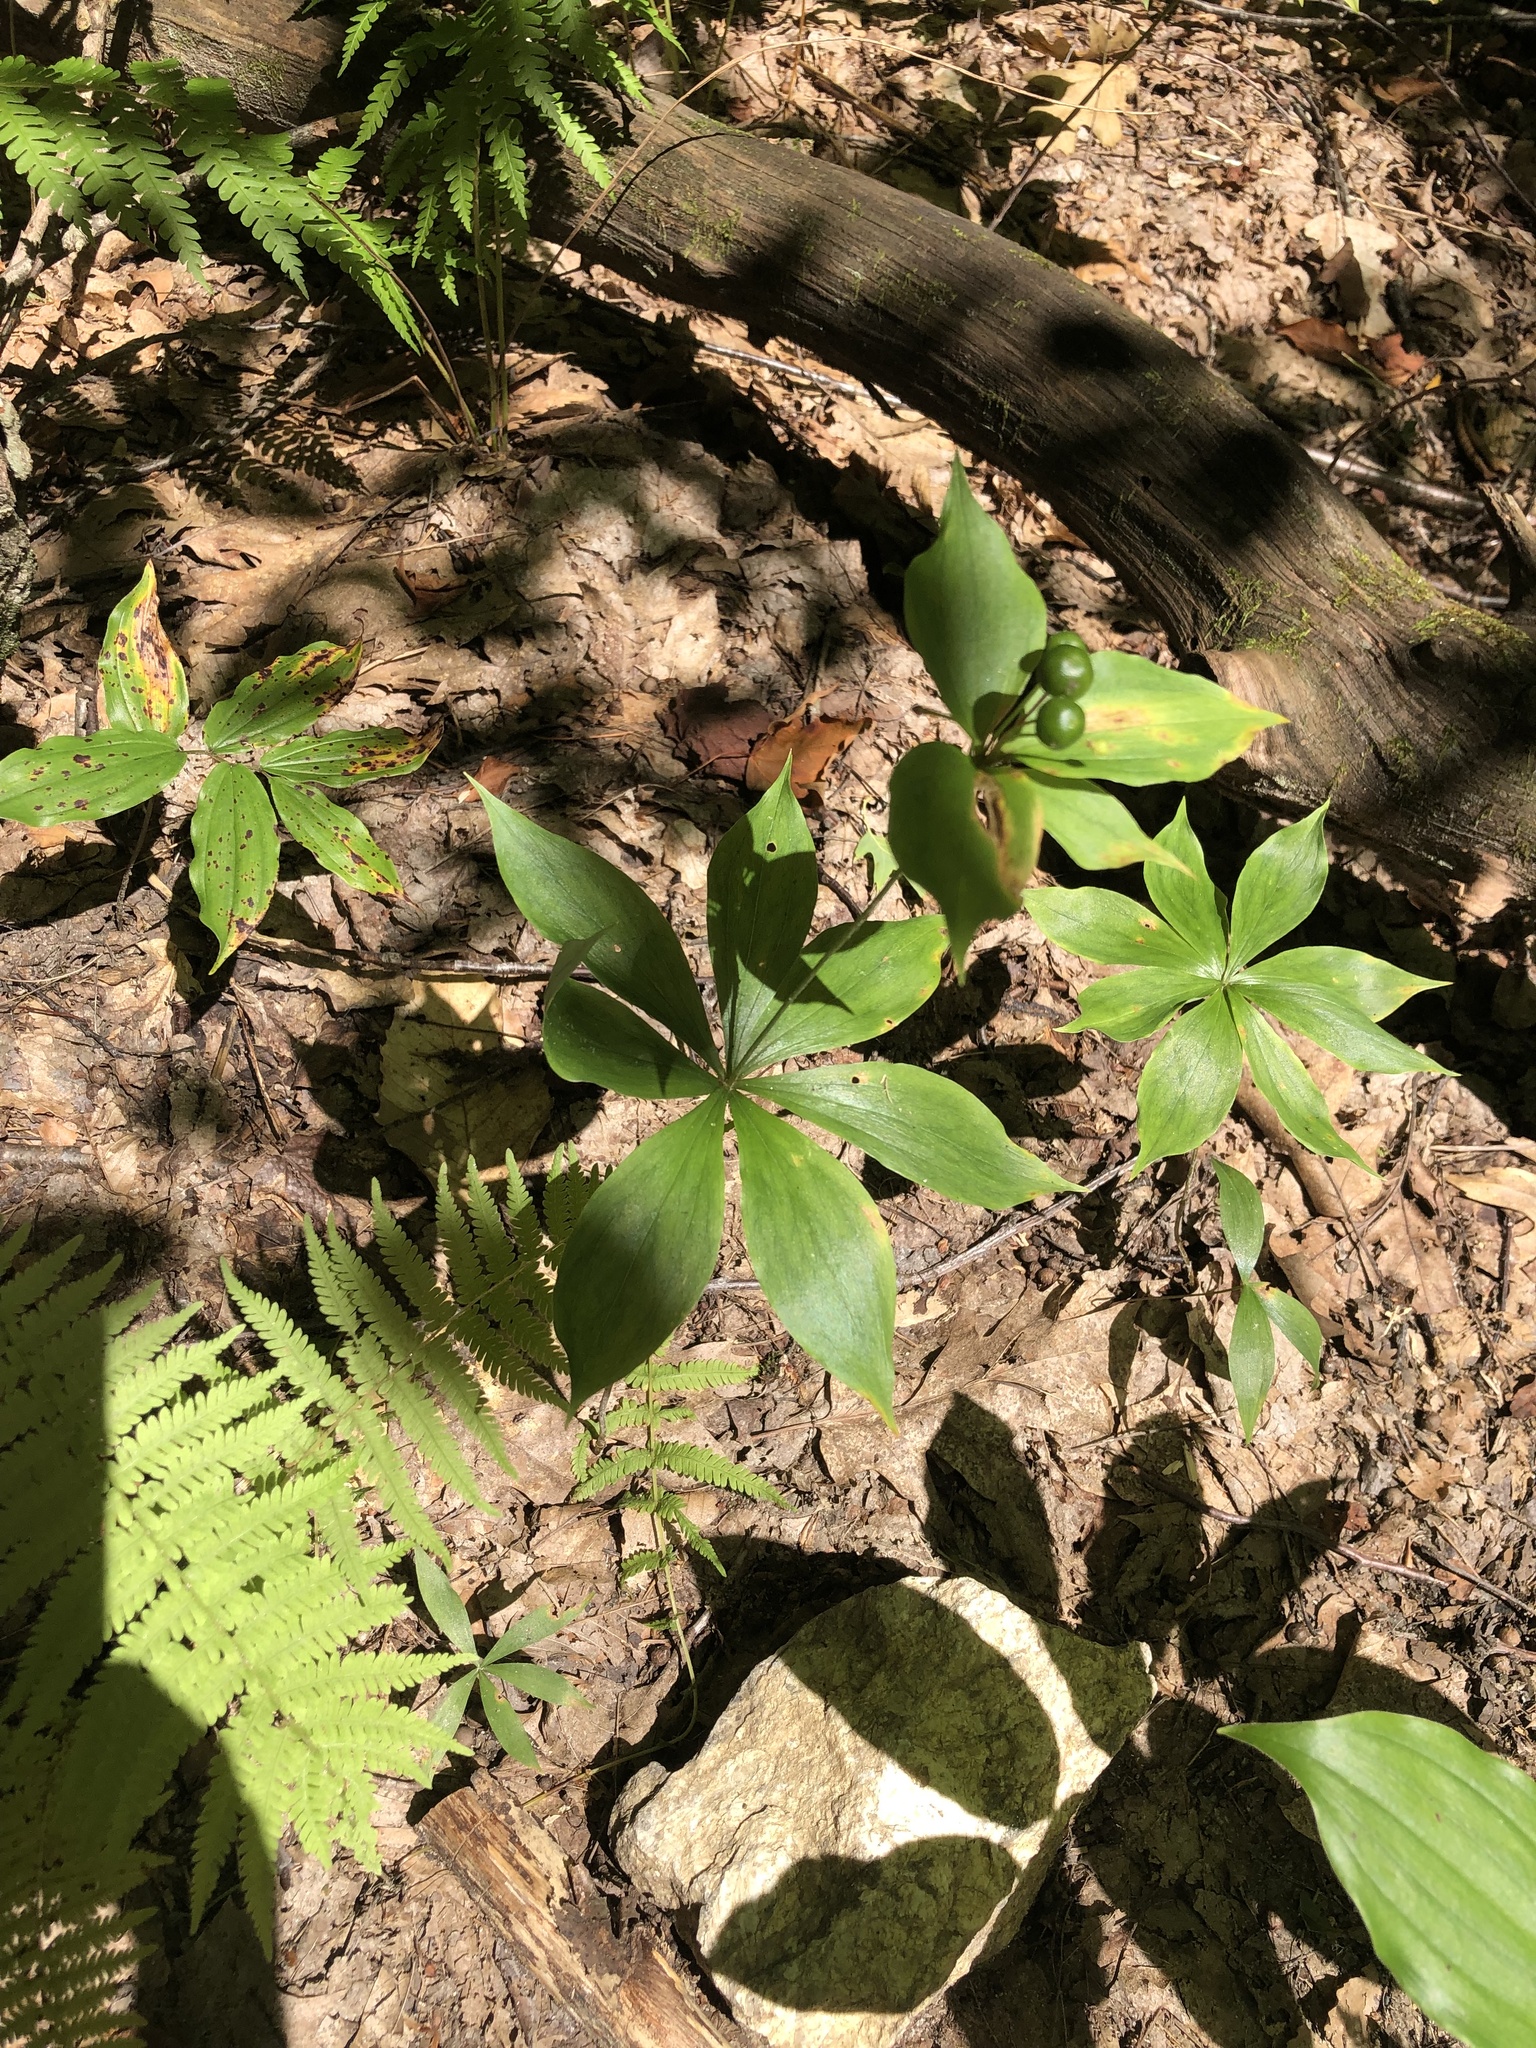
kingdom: Plantae
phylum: Tracheophyta
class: Liliopsida
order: Liliales
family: Liliaceae
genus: Medeola
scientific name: Medeola virginiana
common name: Indian cucumber-root
